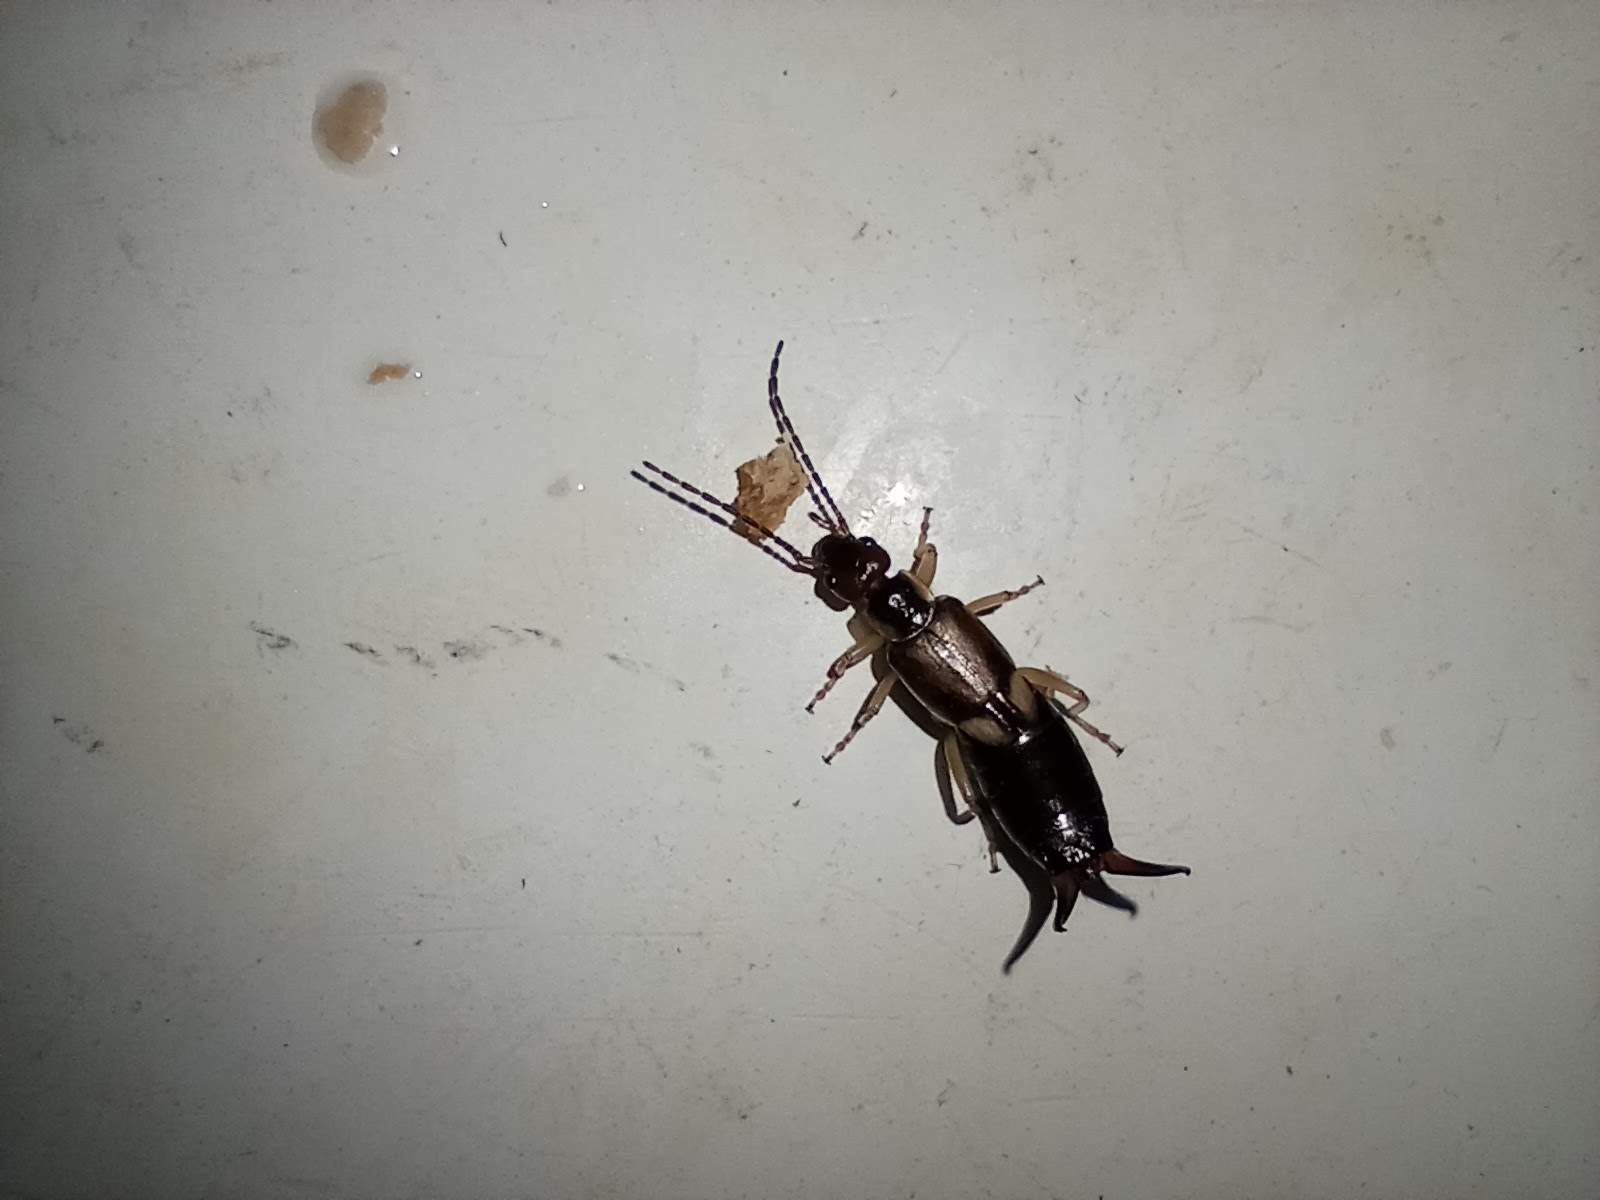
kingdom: Animalia
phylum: Arthropoda
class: Insecta
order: Dermaptera
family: Forficulidae
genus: Forficula
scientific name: Forficula
